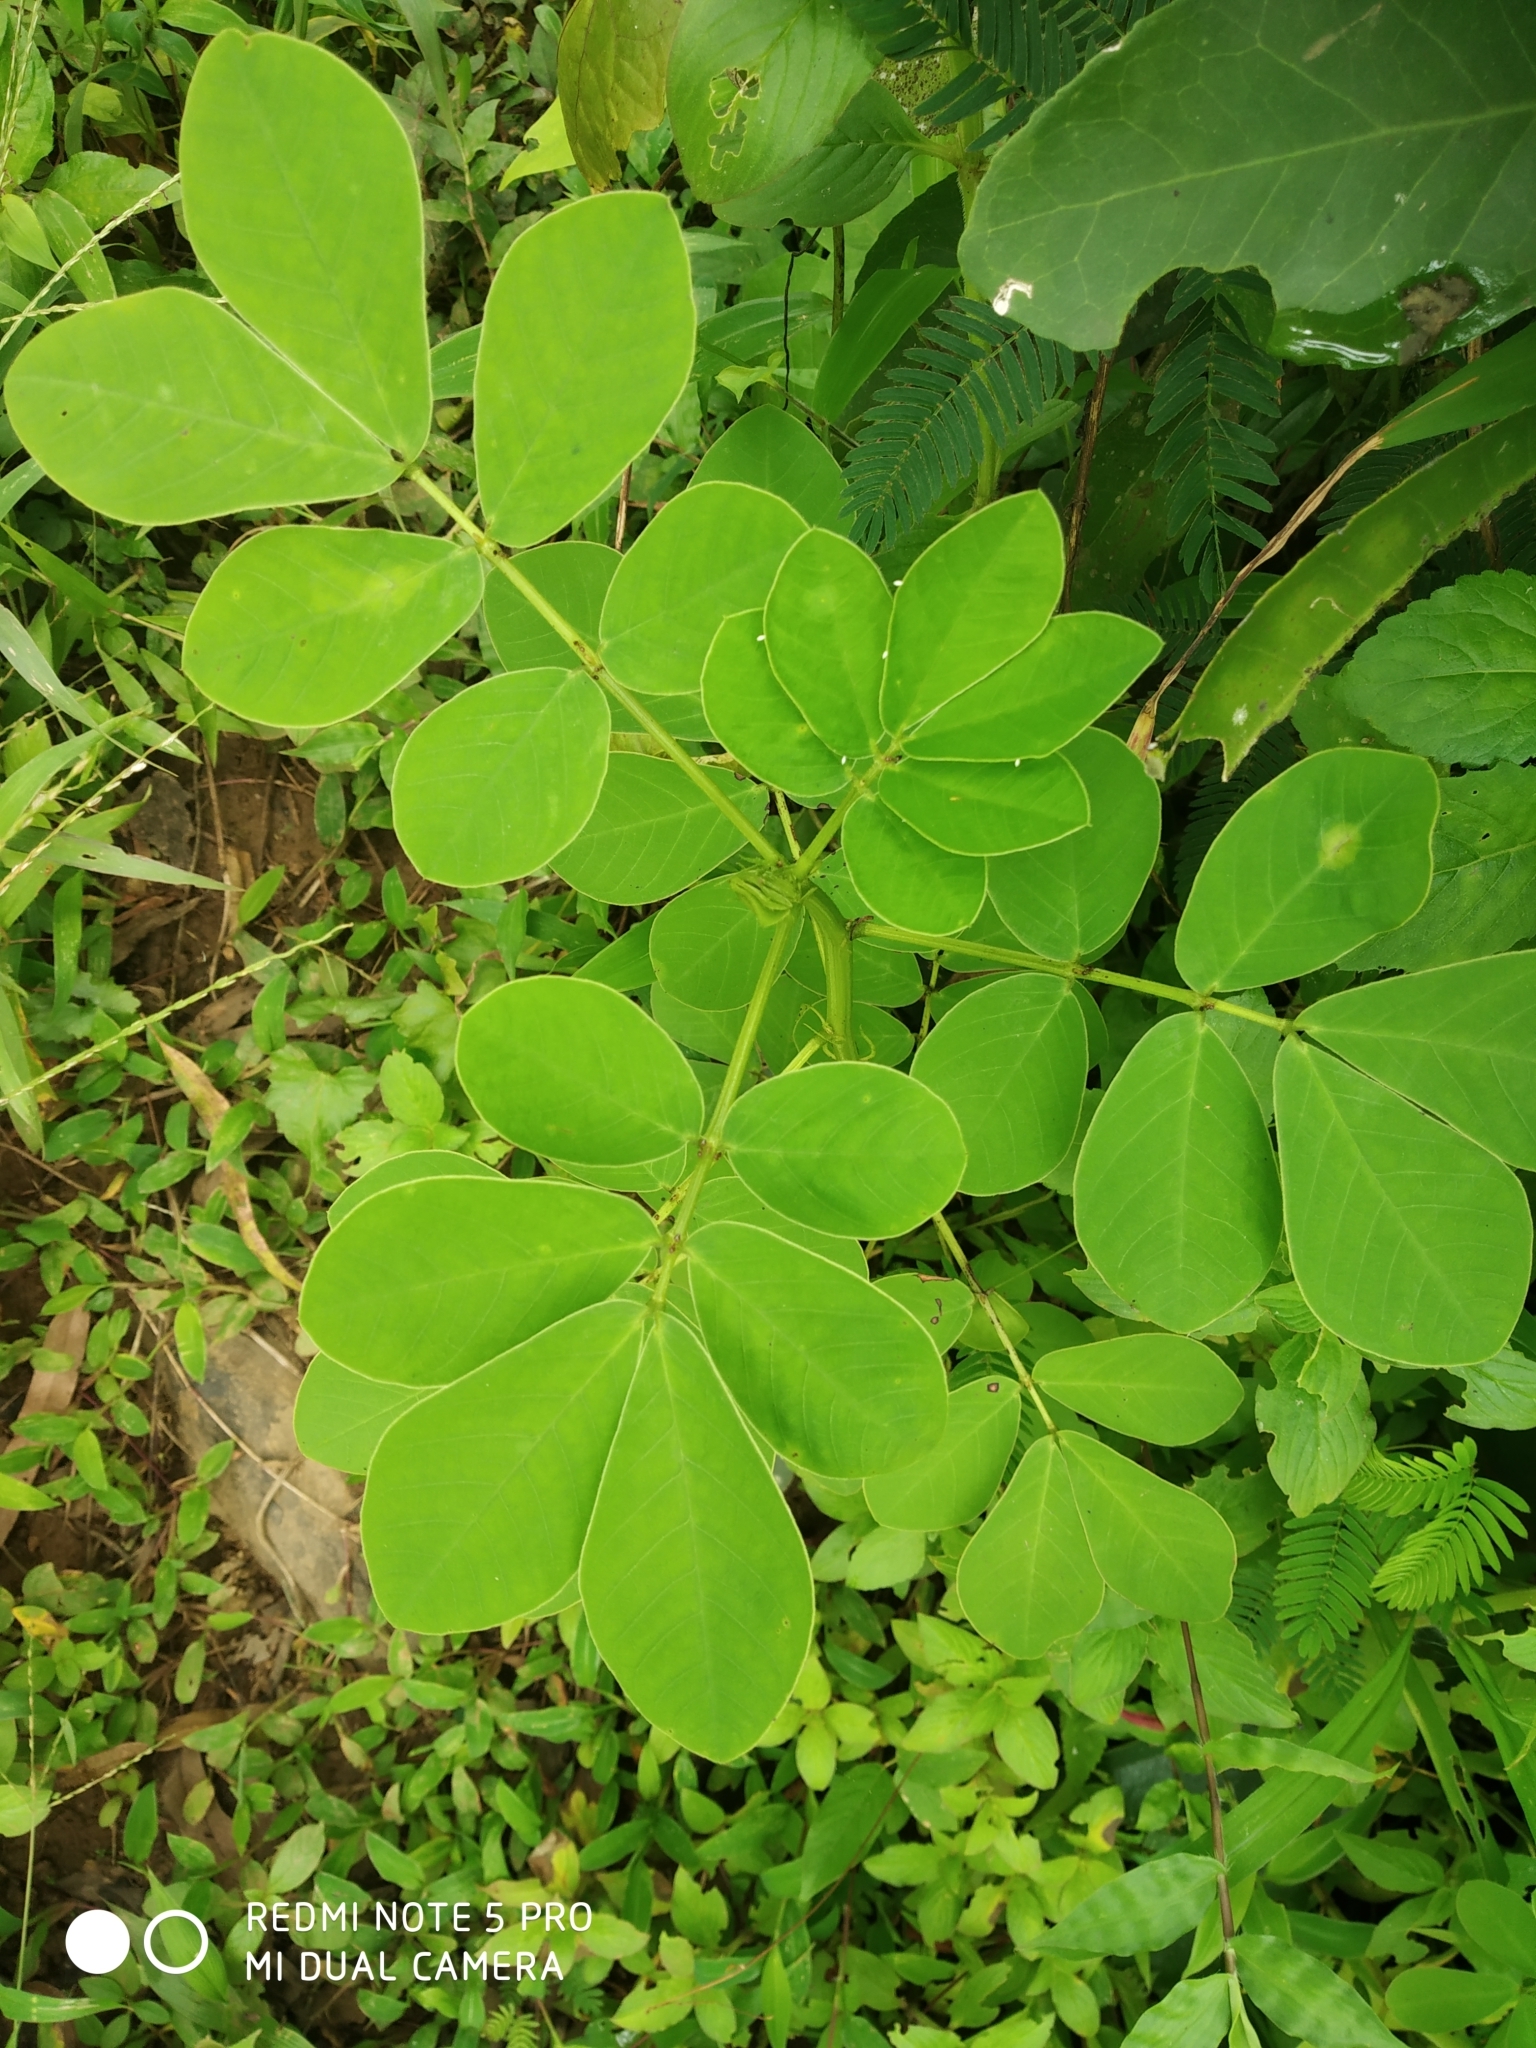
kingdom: Plantae
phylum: Tracheophyta
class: Magnoliopsida
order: Fabales
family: Fabaceae
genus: Senna
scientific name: Senna tora
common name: Sickle senna
